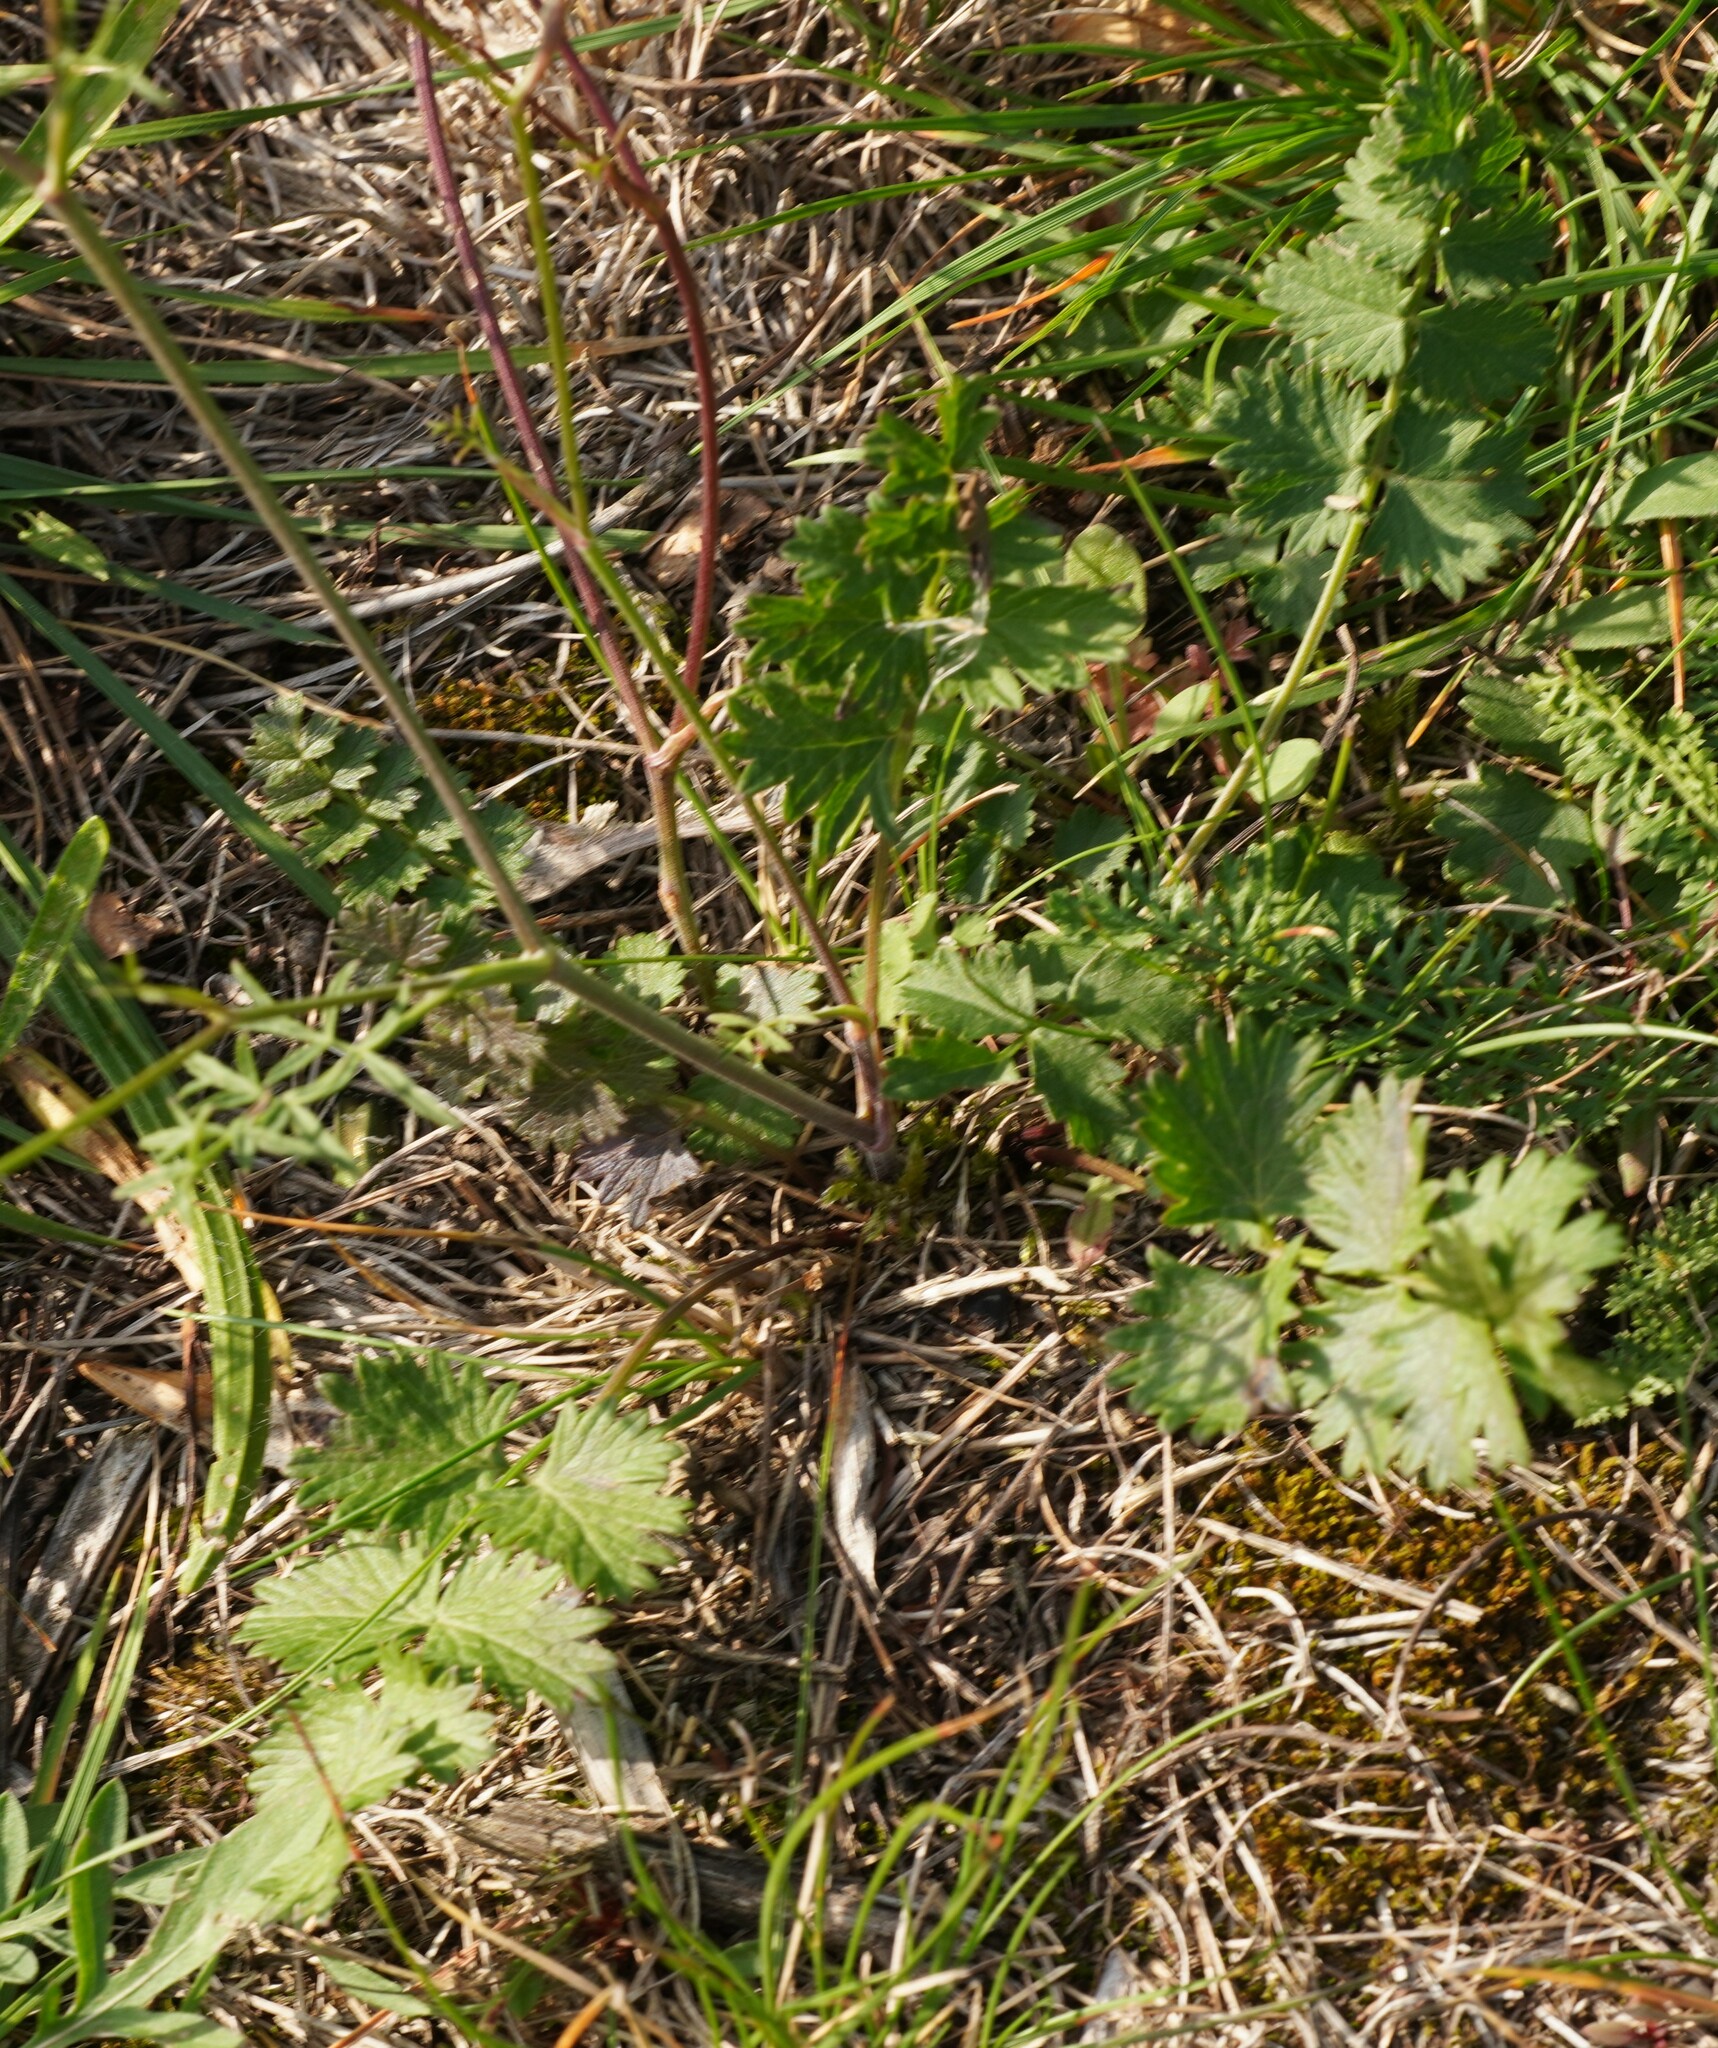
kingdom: Plantae
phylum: Tracheophyta
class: Magnoliopsida
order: Apiales
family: Apiaceae
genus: Pimpinella
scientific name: Pimpinella saxifraga
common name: Burnet-saxifrage
